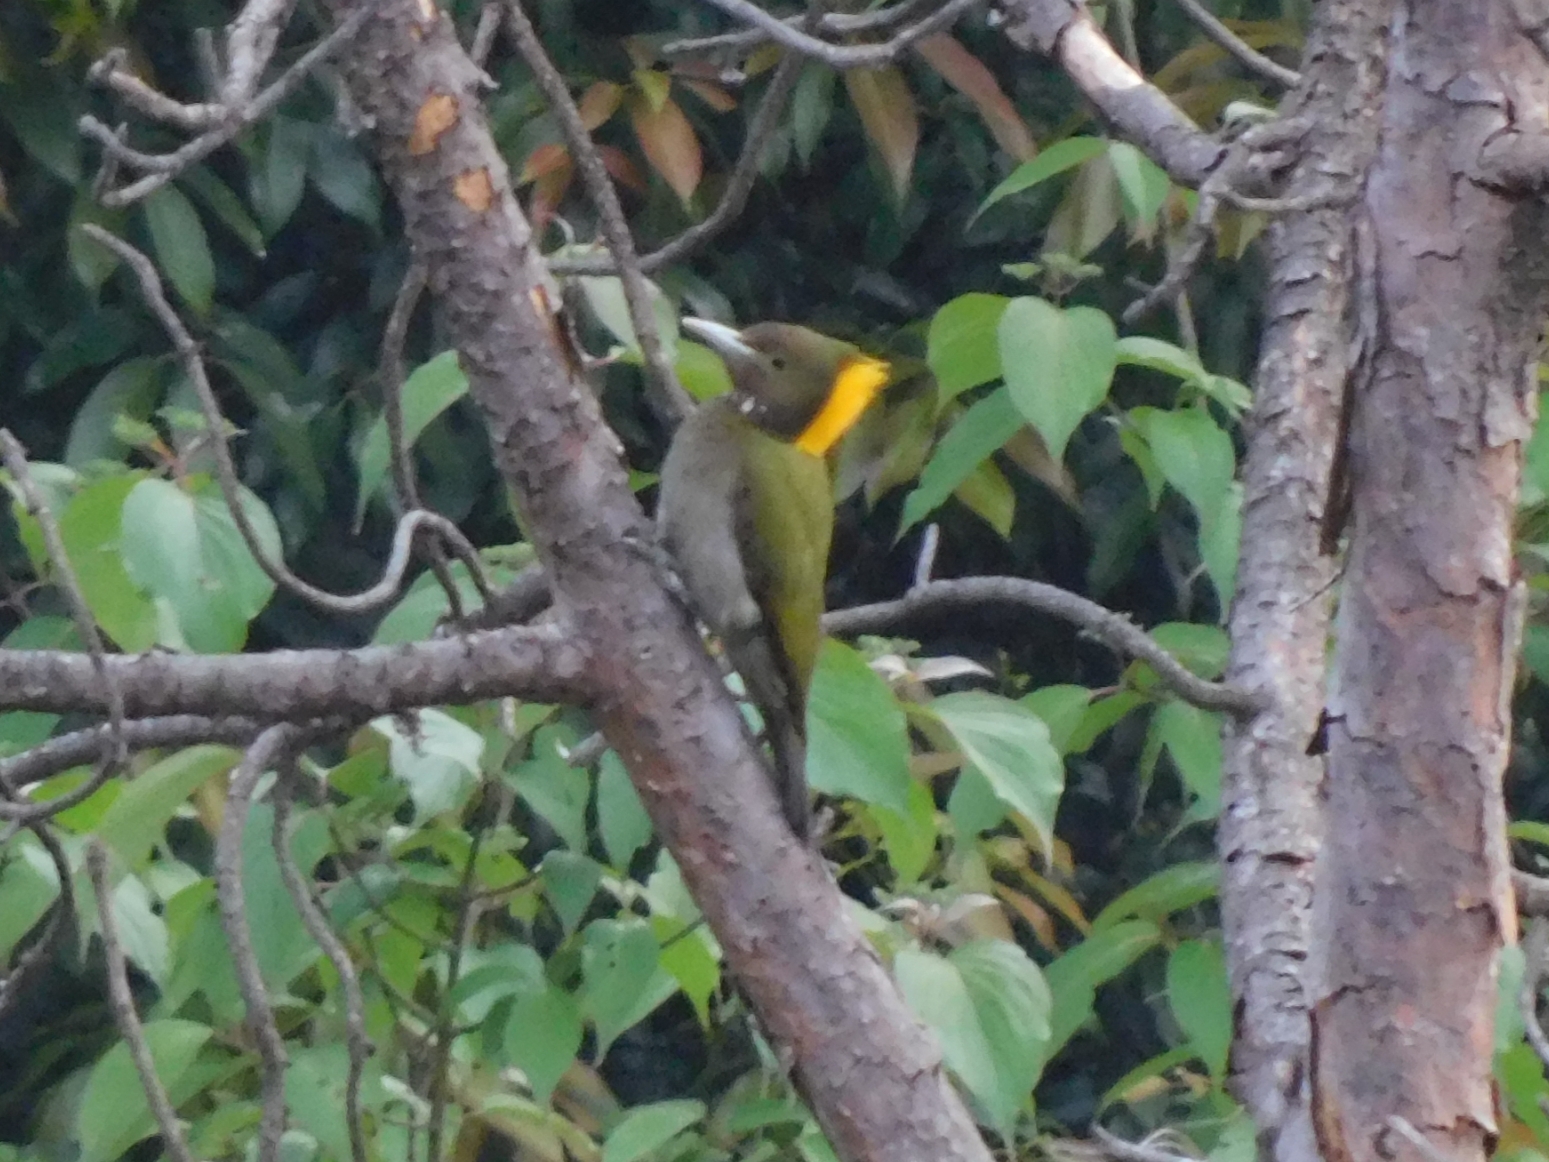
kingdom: Animalia
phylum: Chordata
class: Aves
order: Piciformes
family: Picidae
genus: Chrysophlegma
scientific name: Chrysophlegma flavinucha
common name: Greater yellownape
